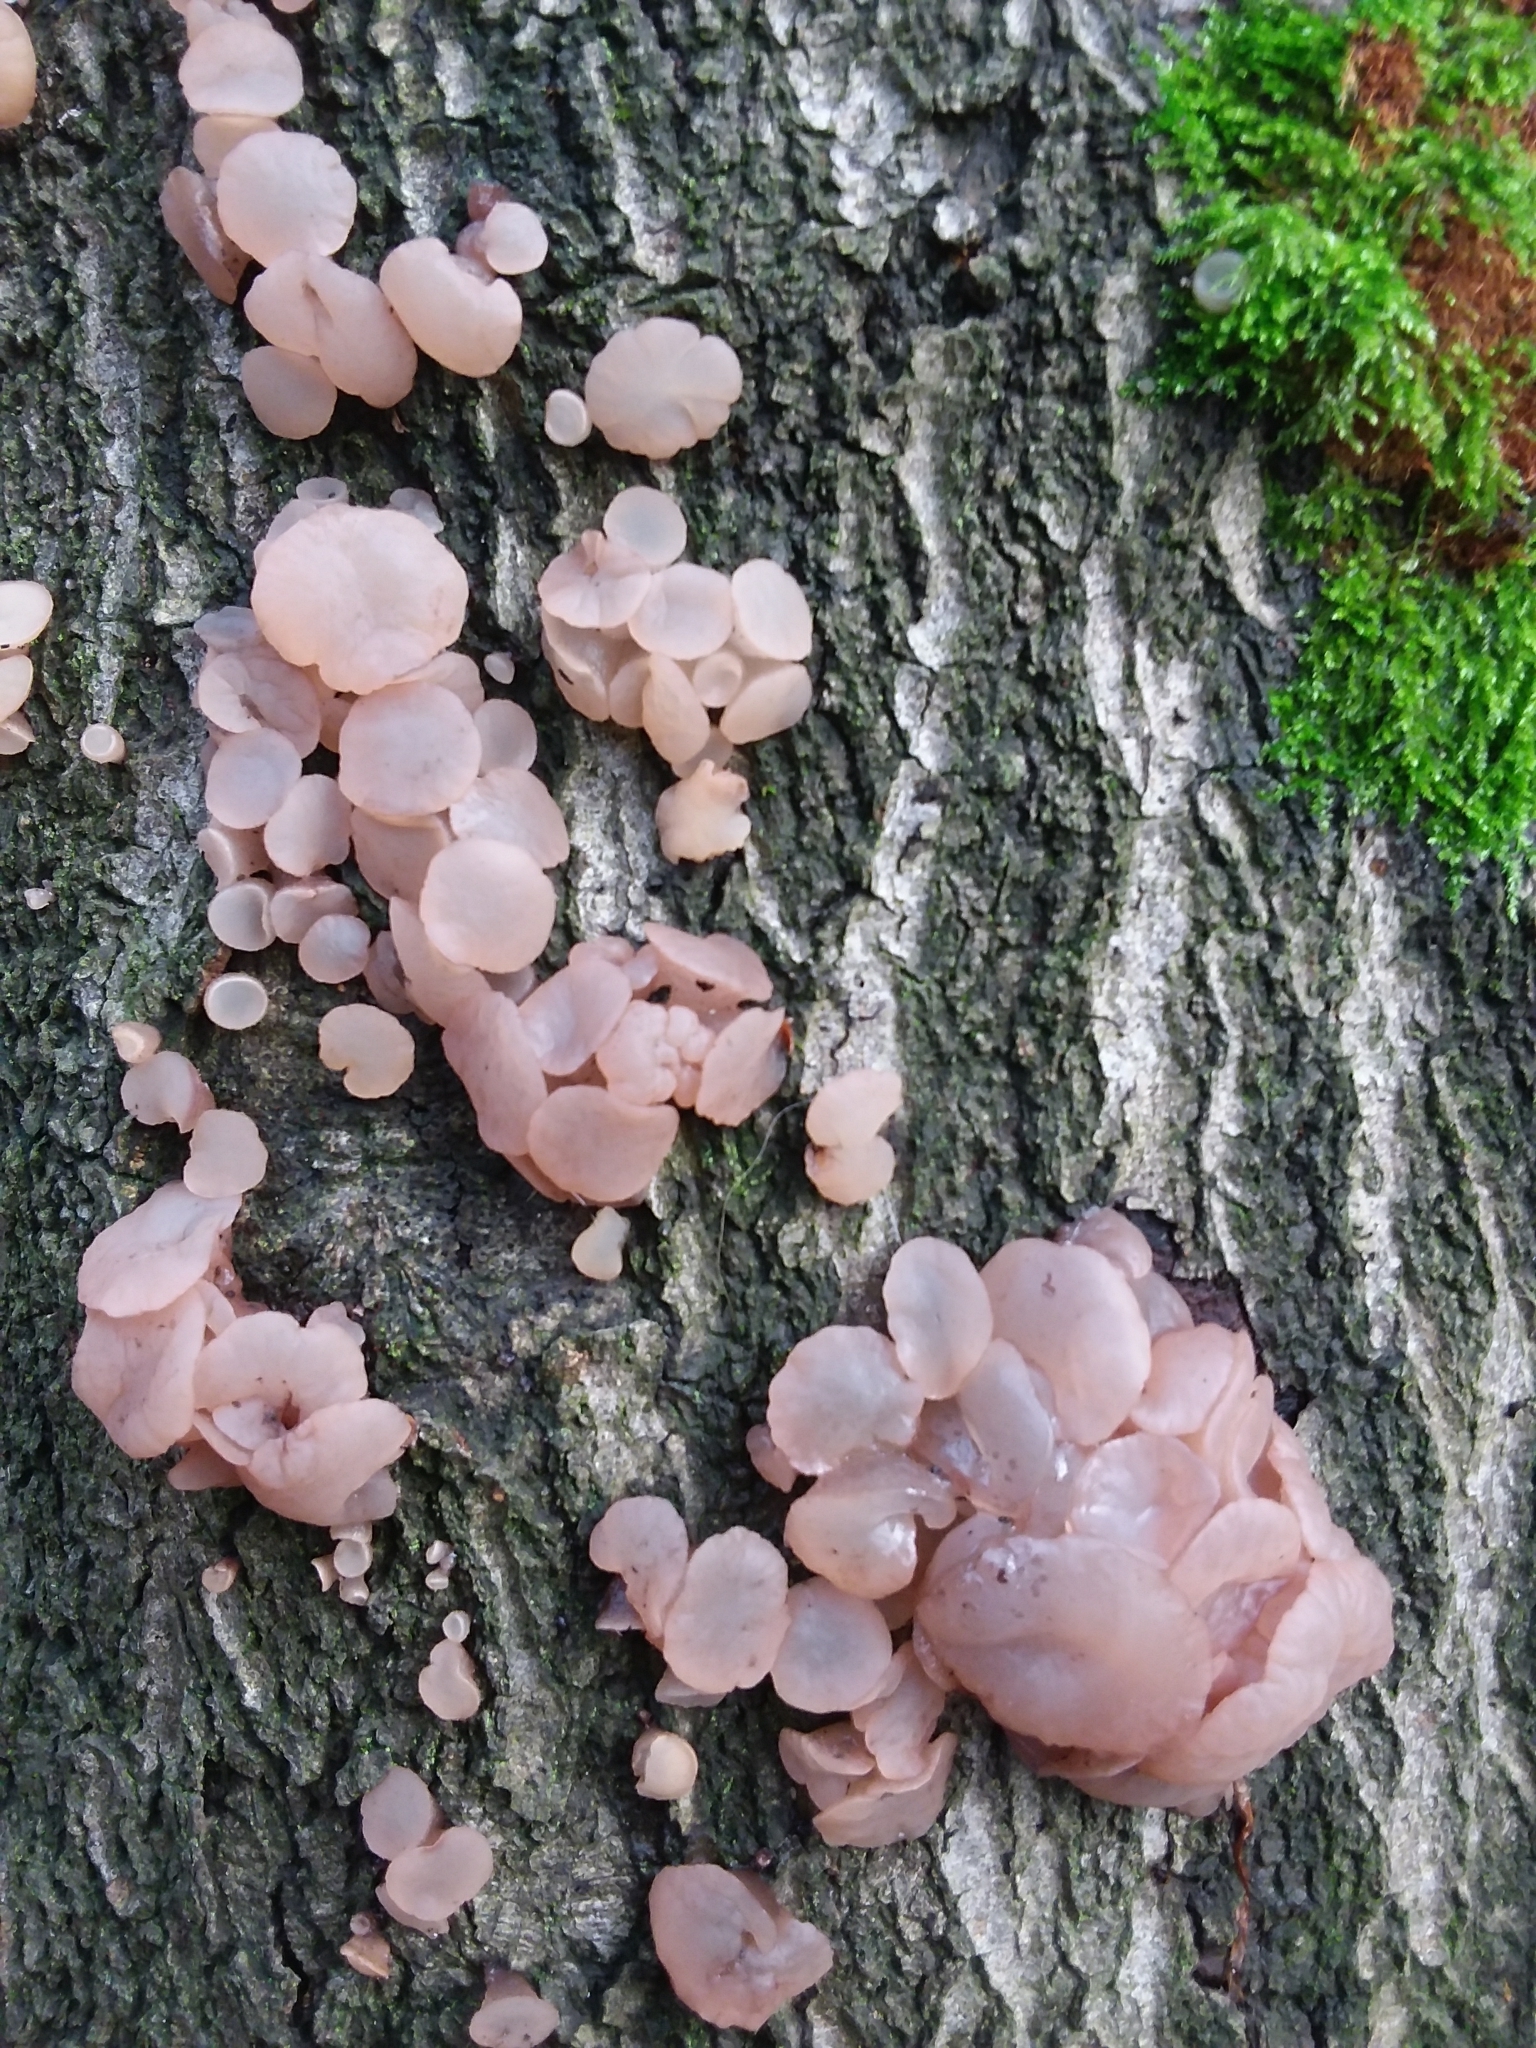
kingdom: Fungi
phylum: Ascomycota
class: Leotiomycetes
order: Helotiales
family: Gelatinodiscaceae
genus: Neobulgaria
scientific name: Neobulgaria pura
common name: Beech jelly-disc
